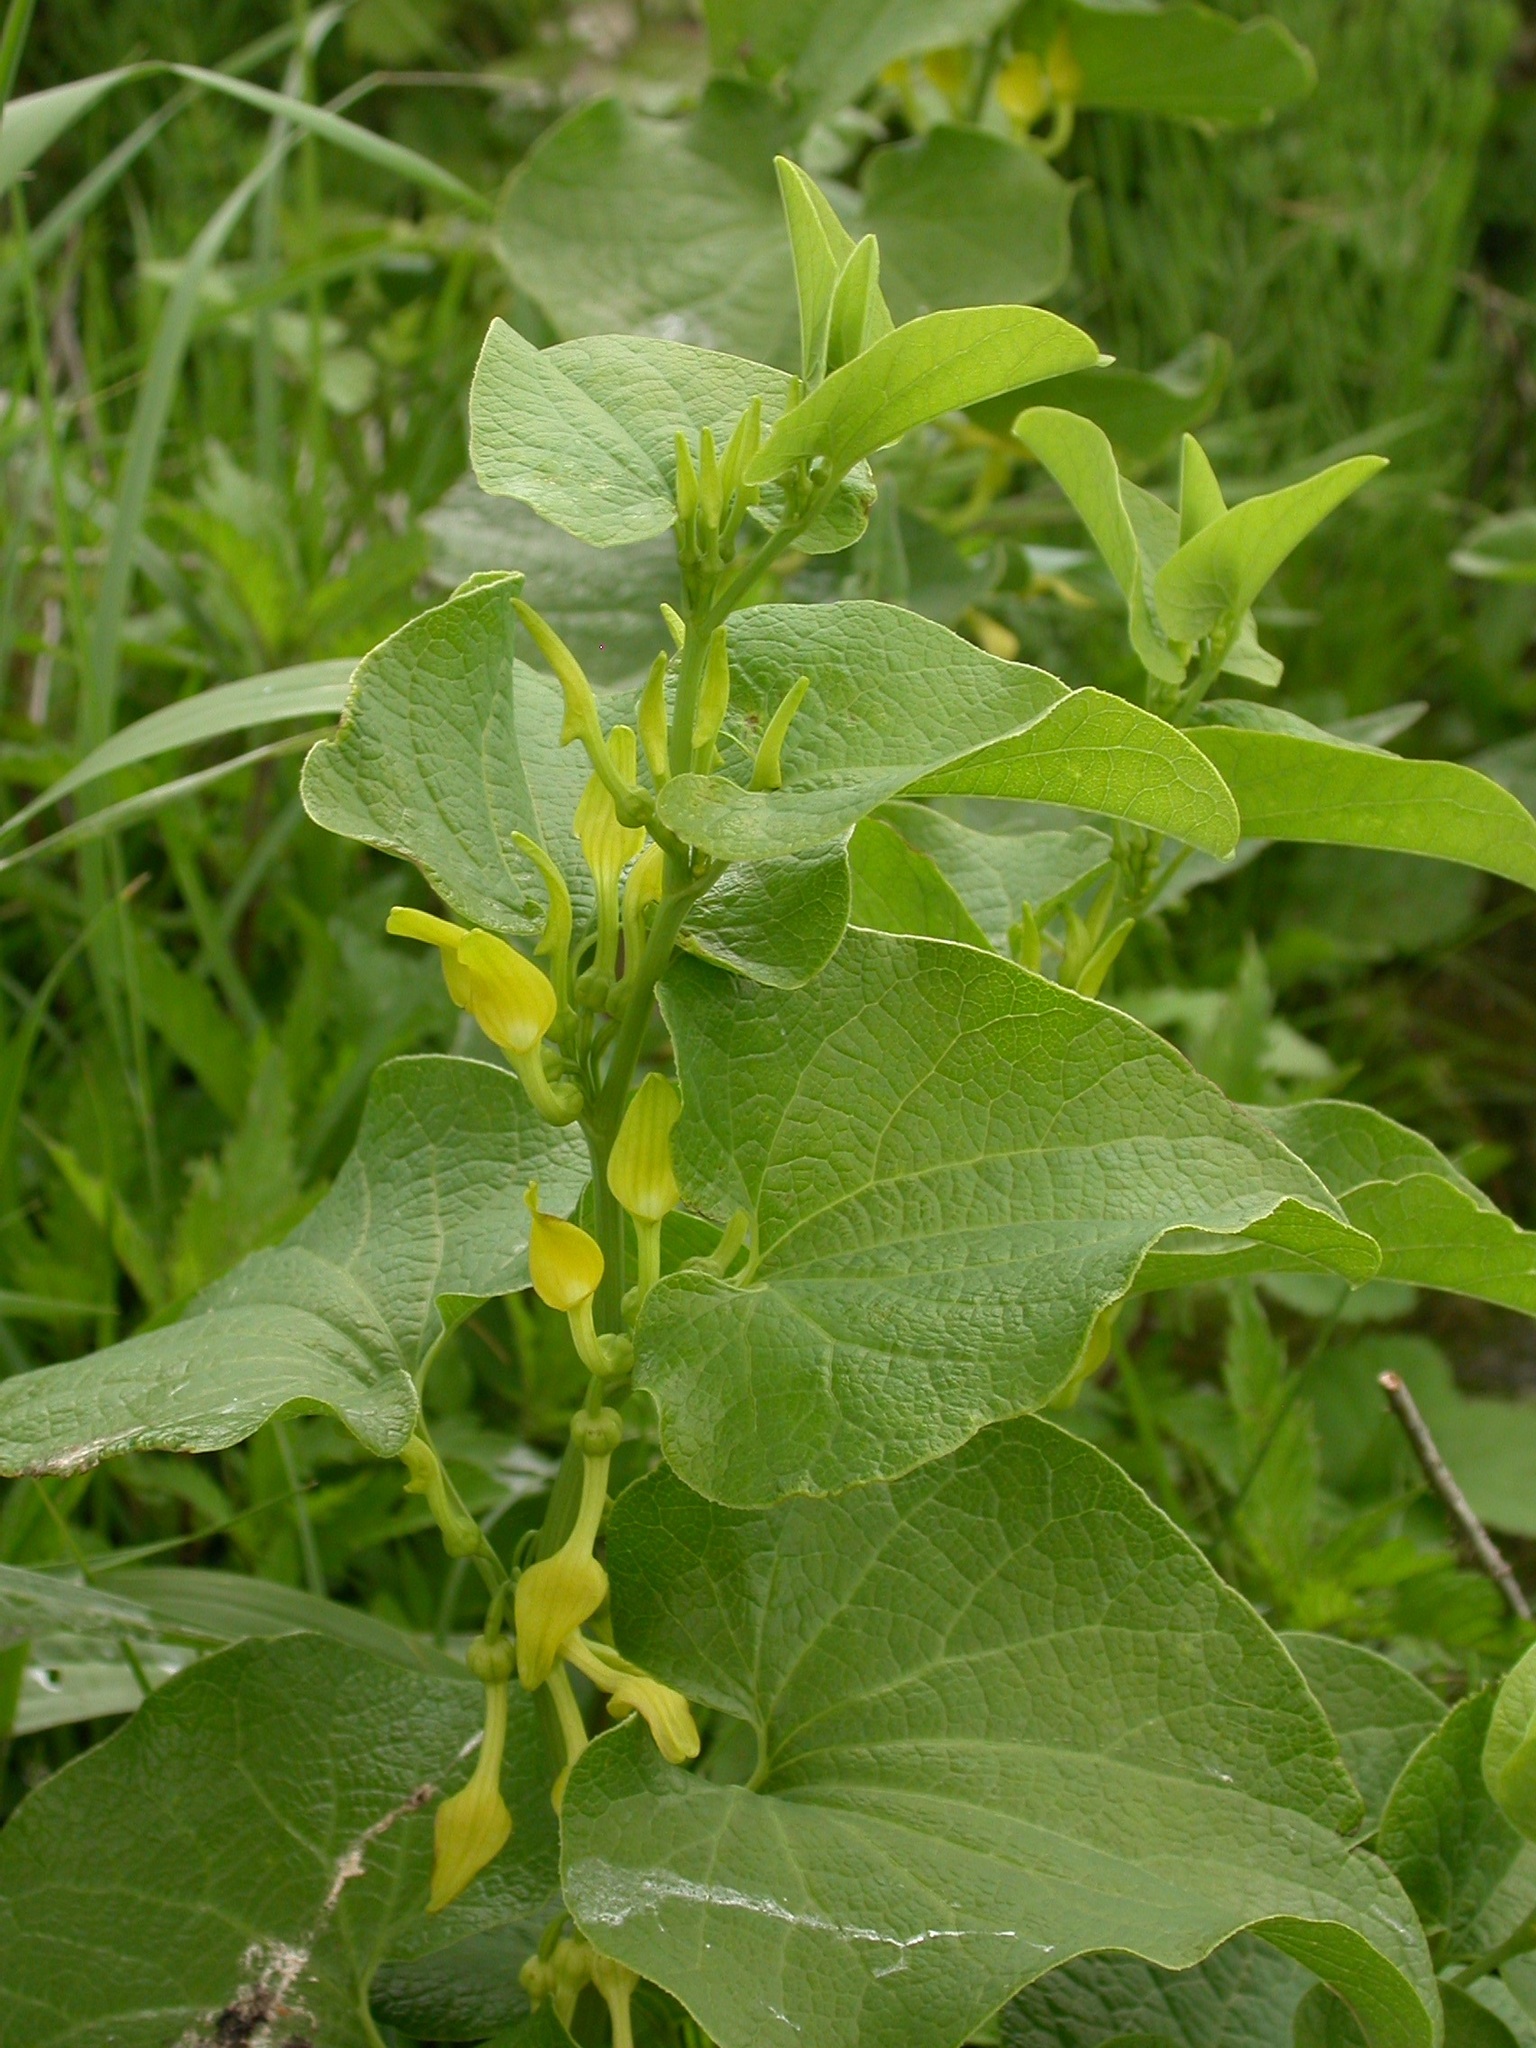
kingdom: Plantae
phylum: Tracheophyta
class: Magnoliopsida
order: Piperales
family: Aristolochiaceae
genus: Aristolochia
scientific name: Aristolochia clematitis
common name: Birthwort
